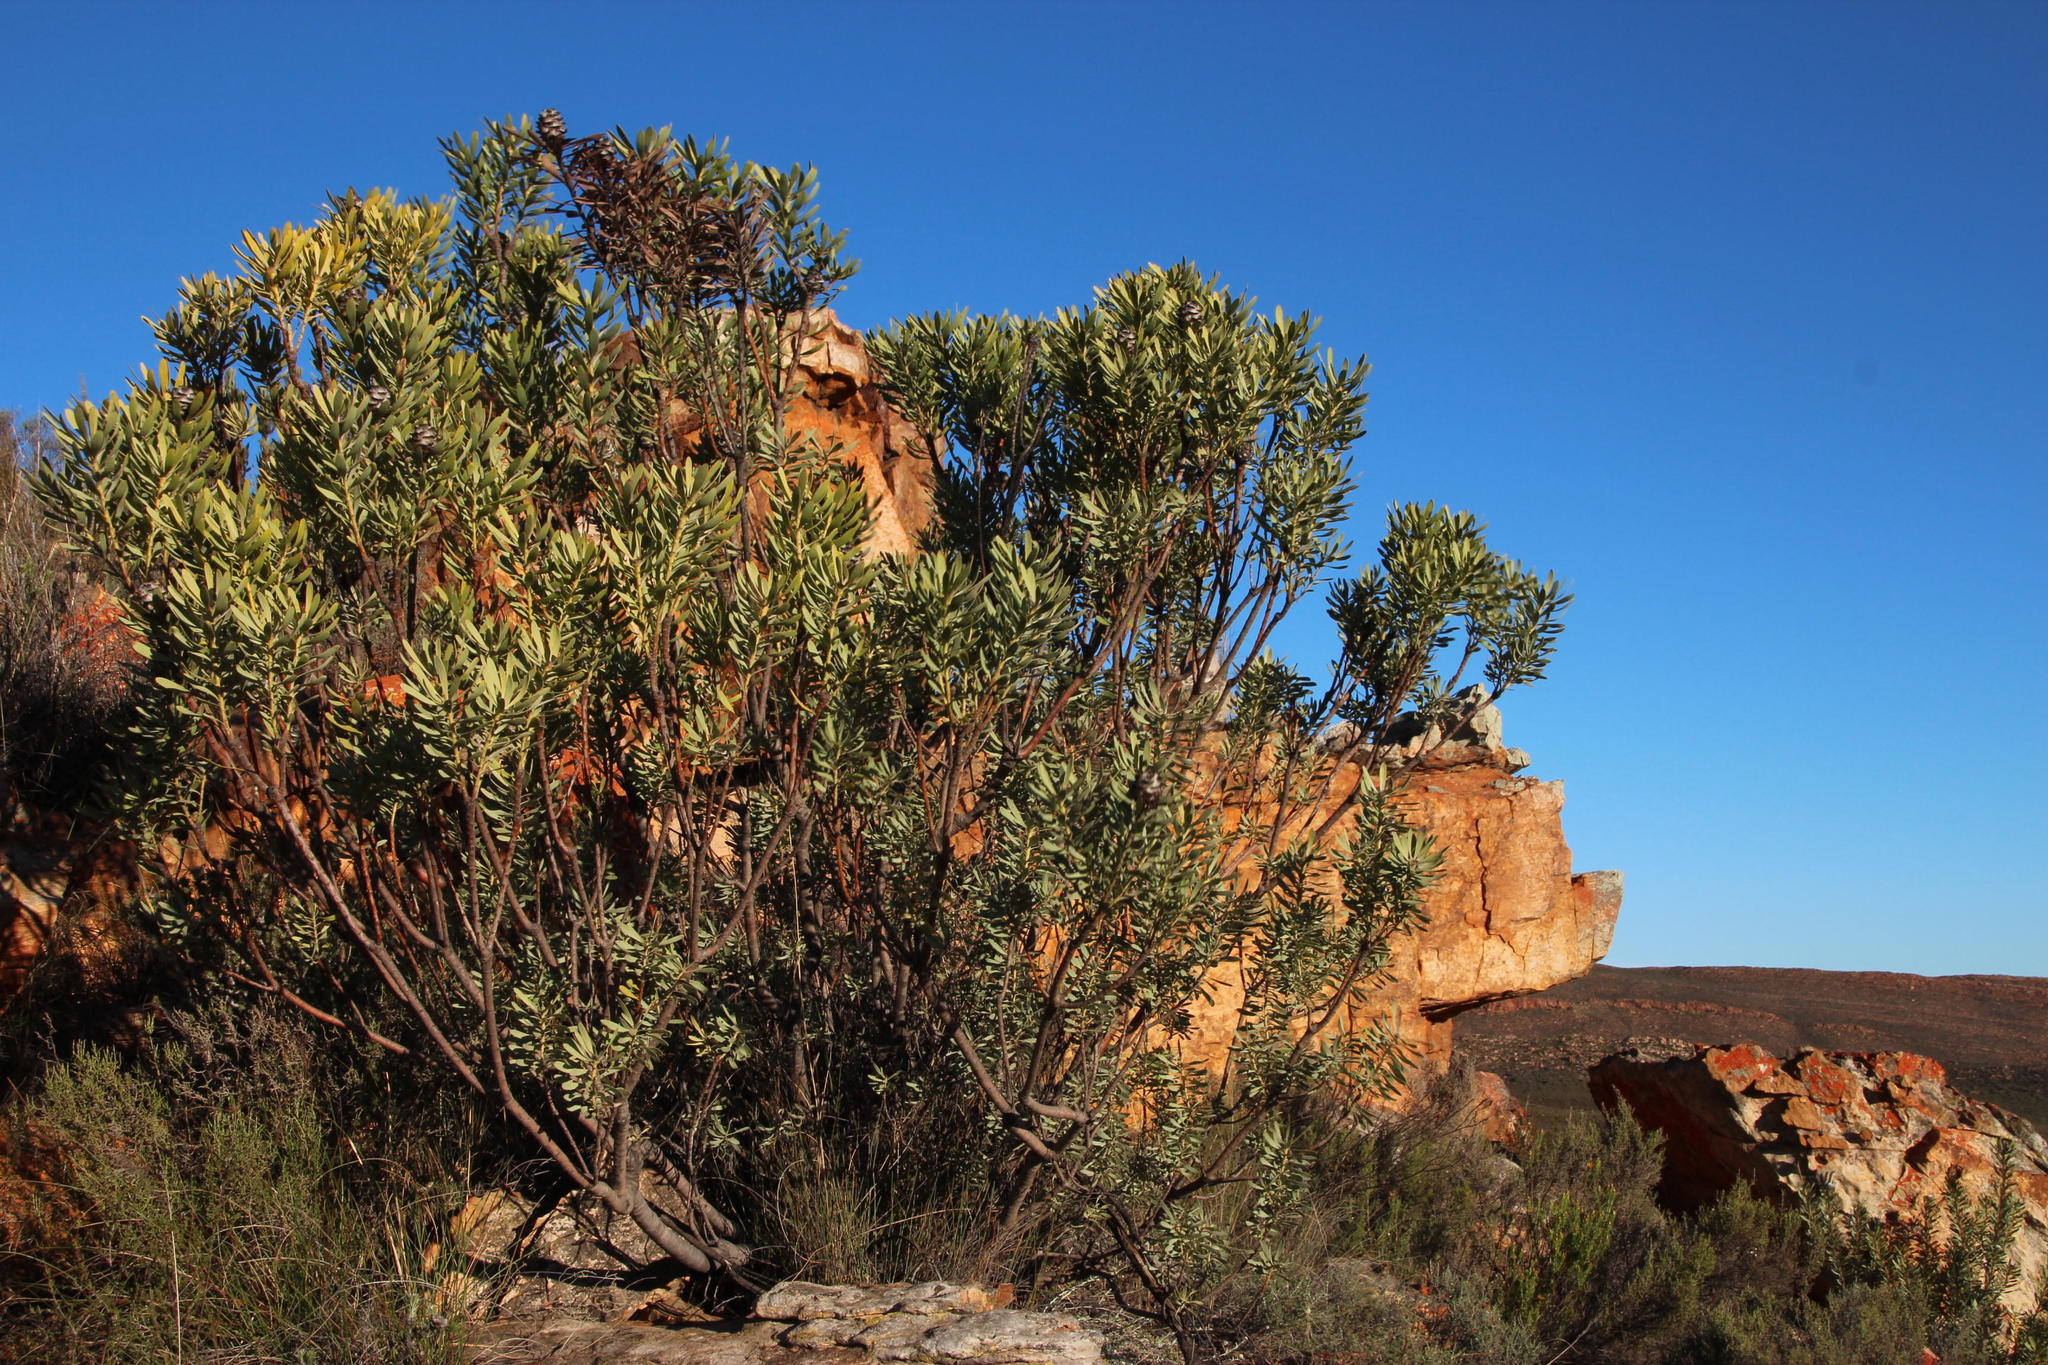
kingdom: Plantae
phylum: Tracheophyta
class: Magnoliopsida
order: Proteales
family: Proteaceae
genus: Leucadendron
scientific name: Leucadendron pubescens
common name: Grey conebush
